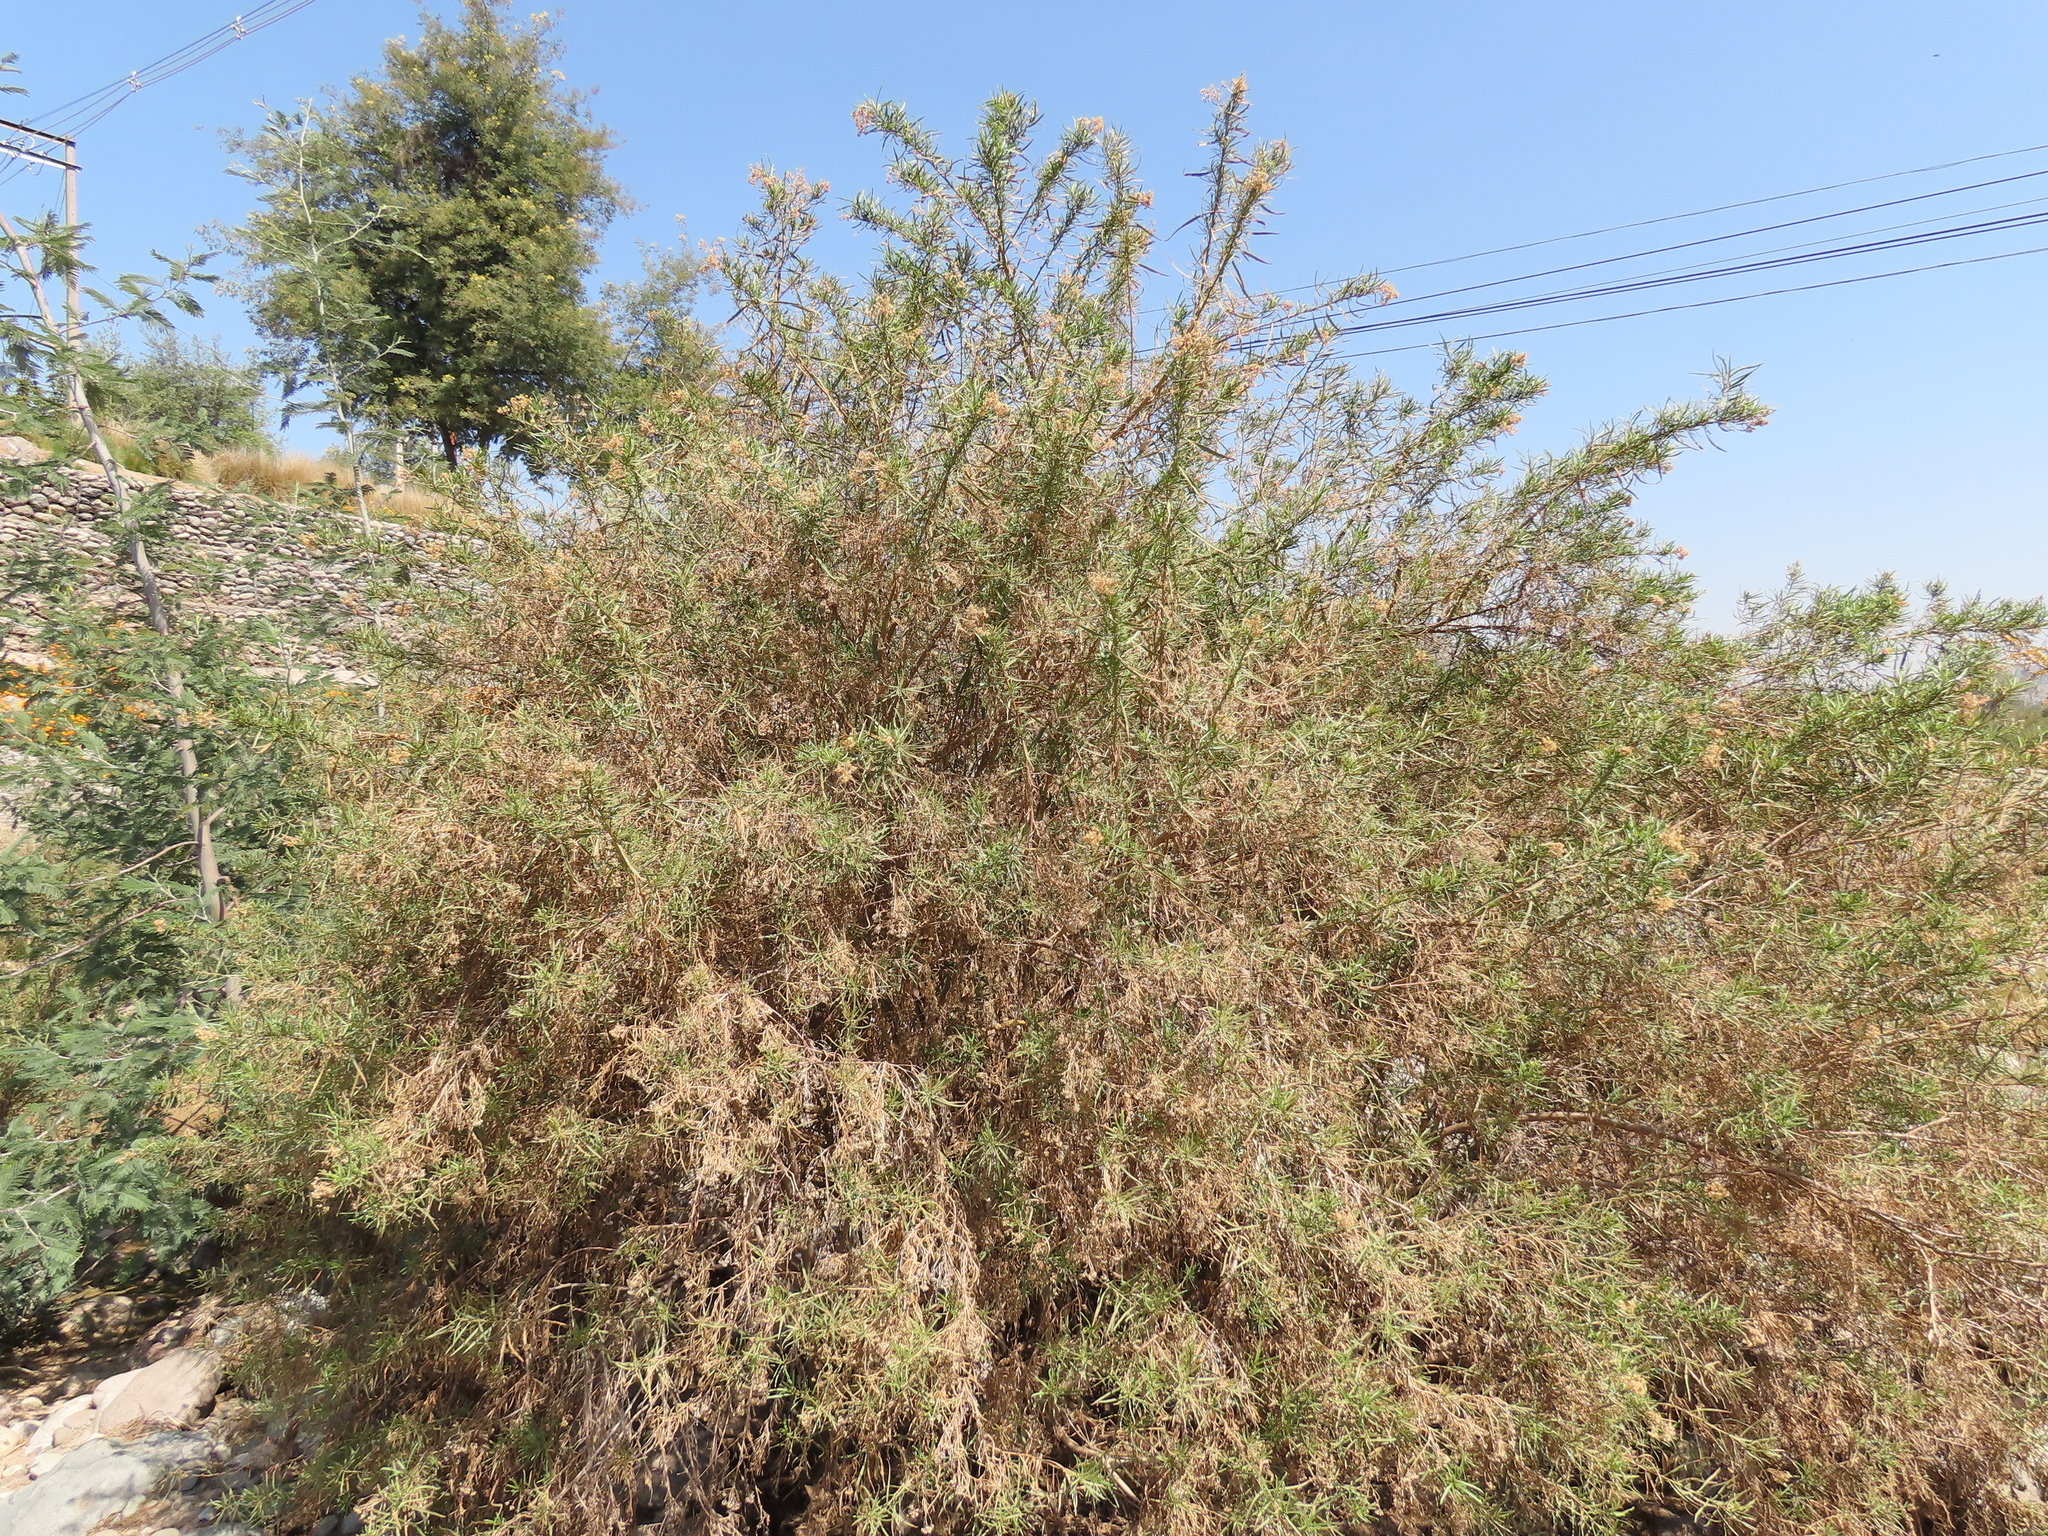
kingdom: Plantae
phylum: Tracheophyta
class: Magnoliopsida
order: Asterales
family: Asteraceae
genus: Baccharis
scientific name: Baccharis salicifolia
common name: Sticky baccharis
